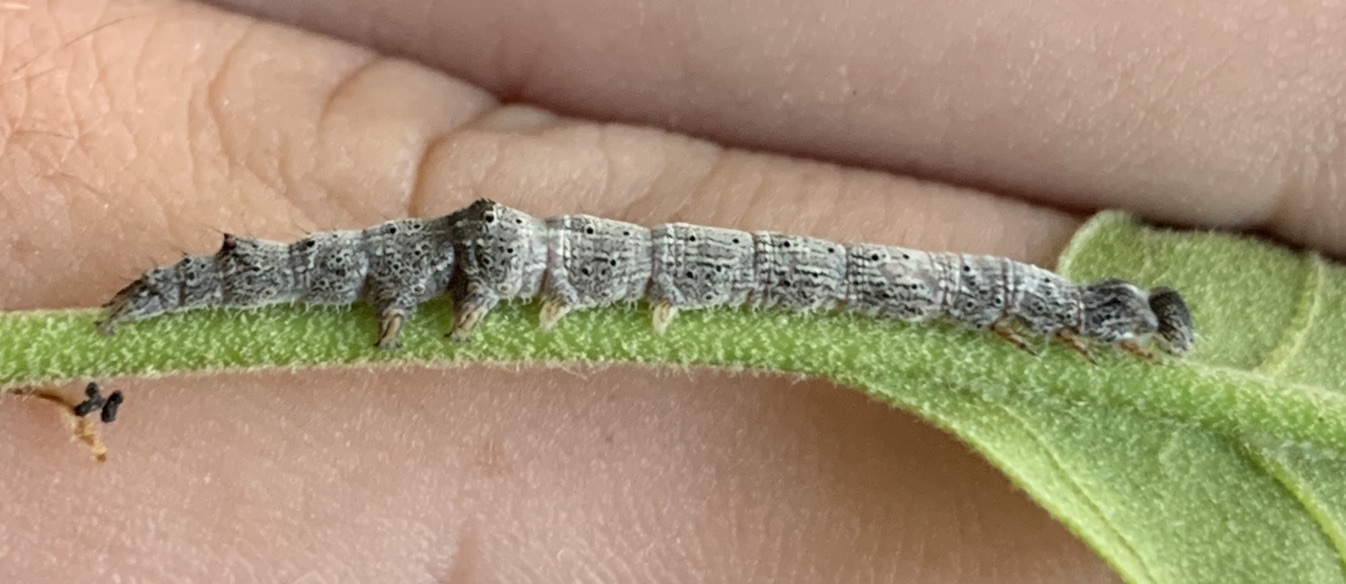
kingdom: Animalia
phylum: Arthropoda
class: Insecta
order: Lepidoptera
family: Erebidae
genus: Catocala
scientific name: Catocala lineella
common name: Little lined underwing
